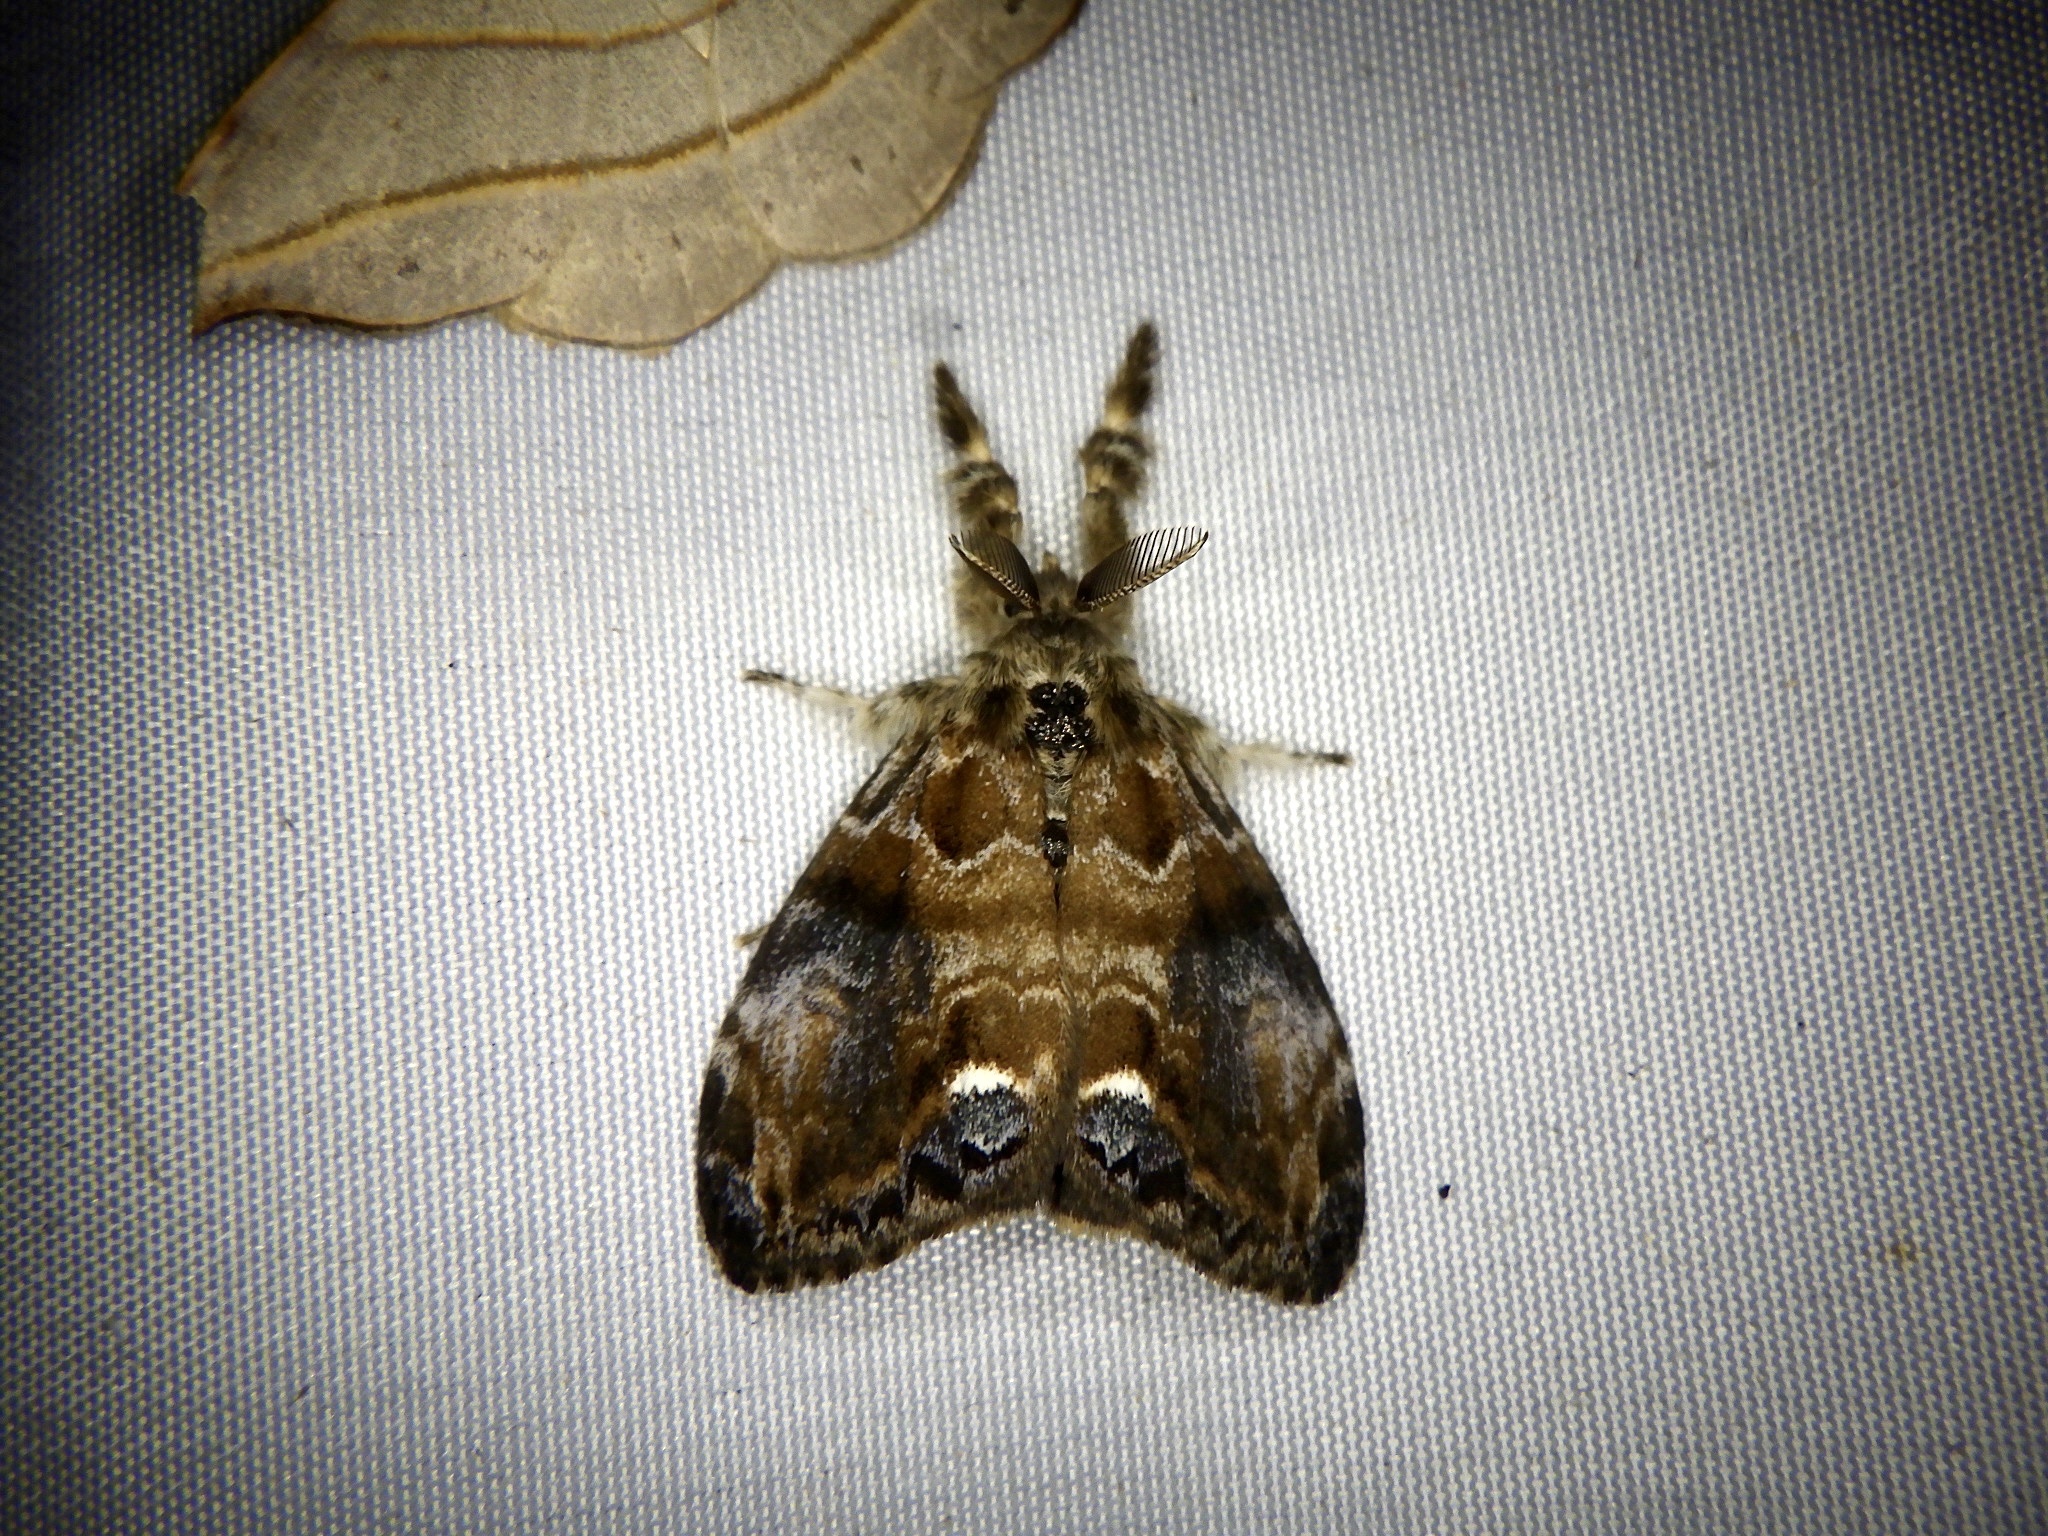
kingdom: Animalia
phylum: Arthropoda
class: Insecta
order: Lepidoptera
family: Erebidae
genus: Orgyia
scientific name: Orgyia thyellina
